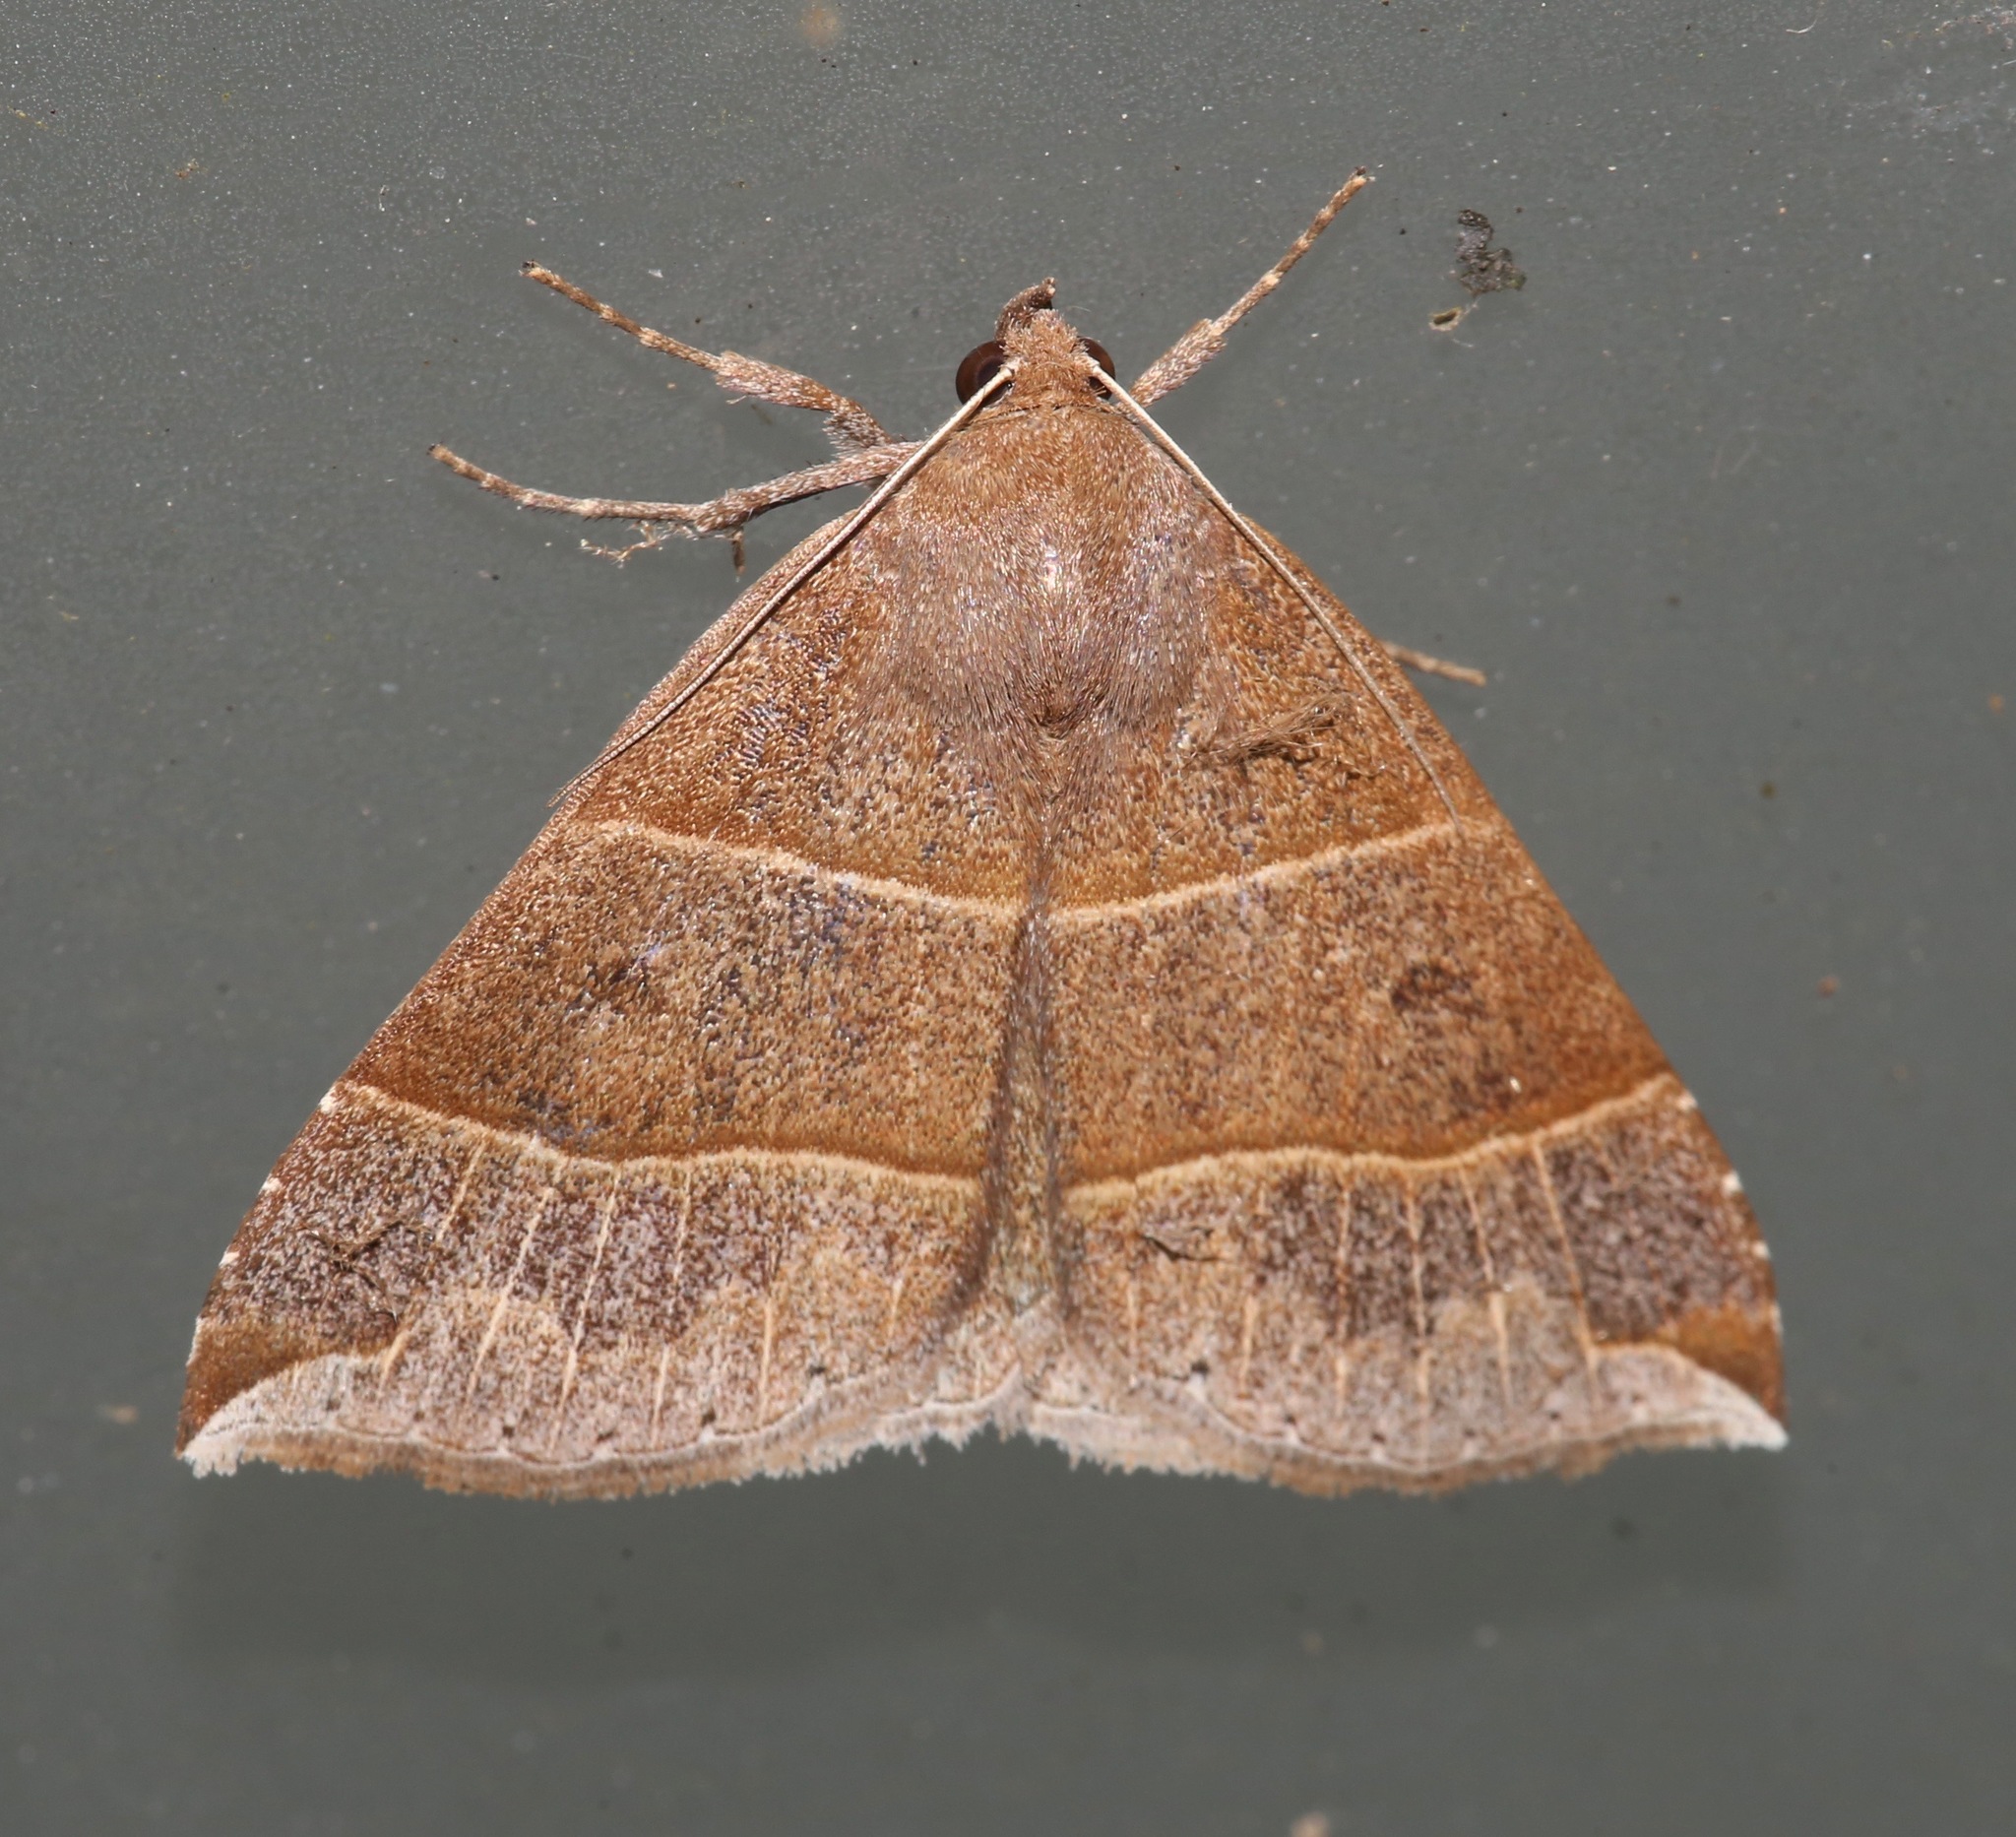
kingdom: Animalia
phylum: Arthropoda
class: Insecta
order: Lepidoptera
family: Erebidae
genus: Parallelia
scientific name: Parallelia bistriaris
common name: Maple looper moth
